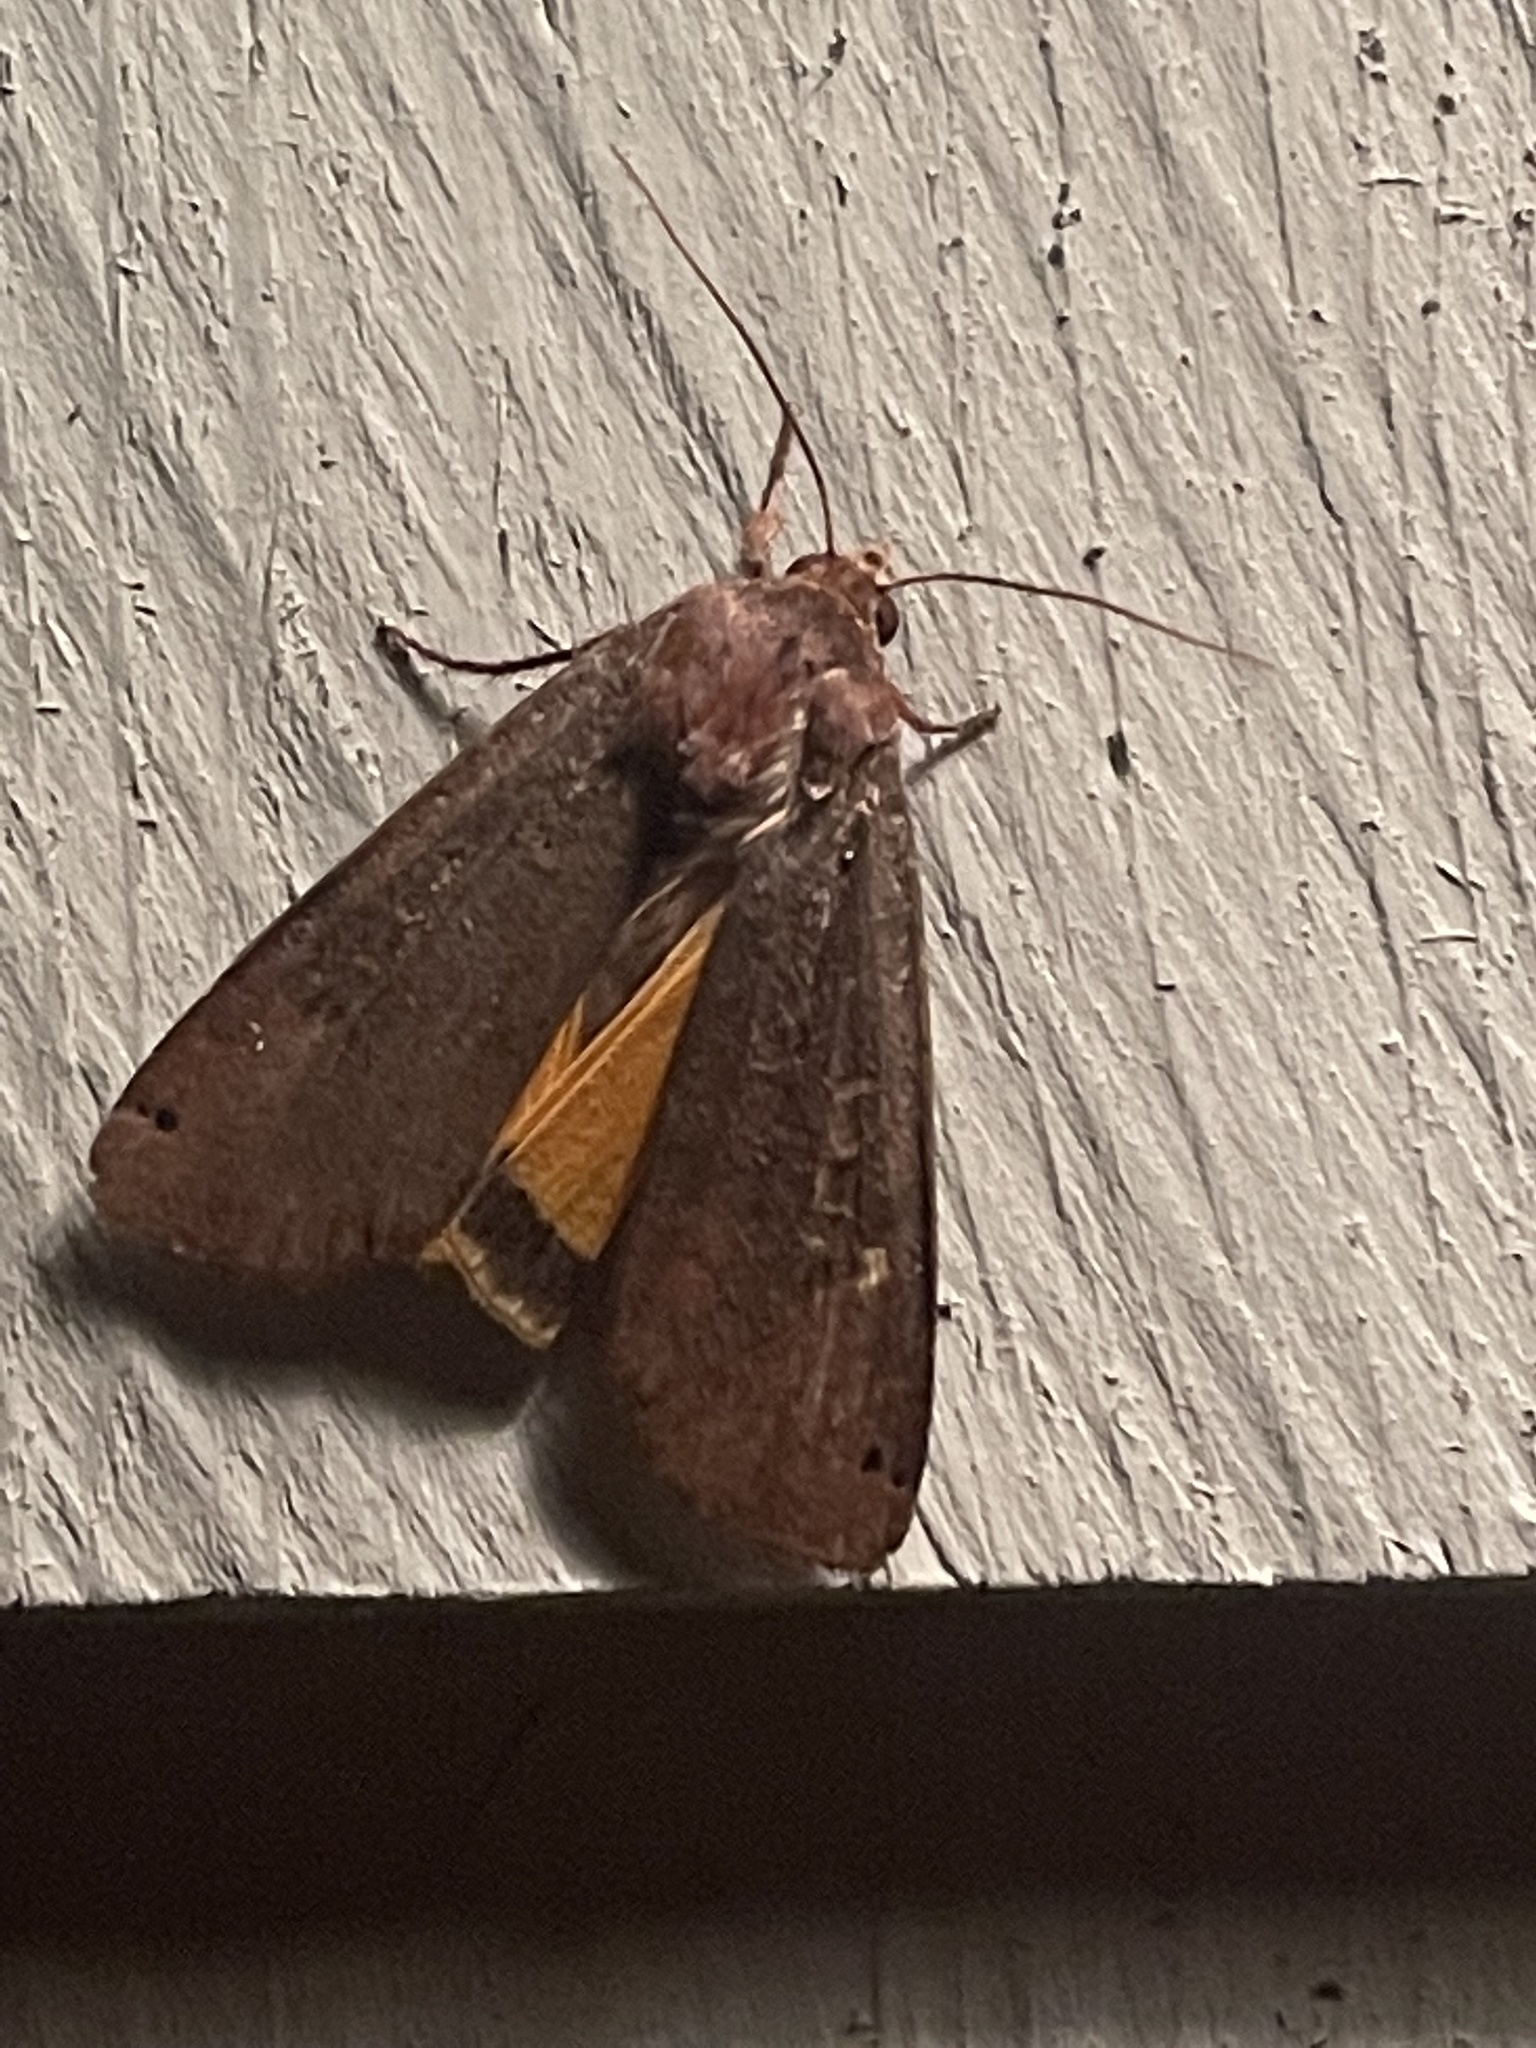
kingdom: Animalia
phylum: Arthropoda
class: Insecta
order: Lepidoptera
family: Noctuidae
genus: Noctua
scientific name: Noctua pronuba
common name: Large yellow underwing
